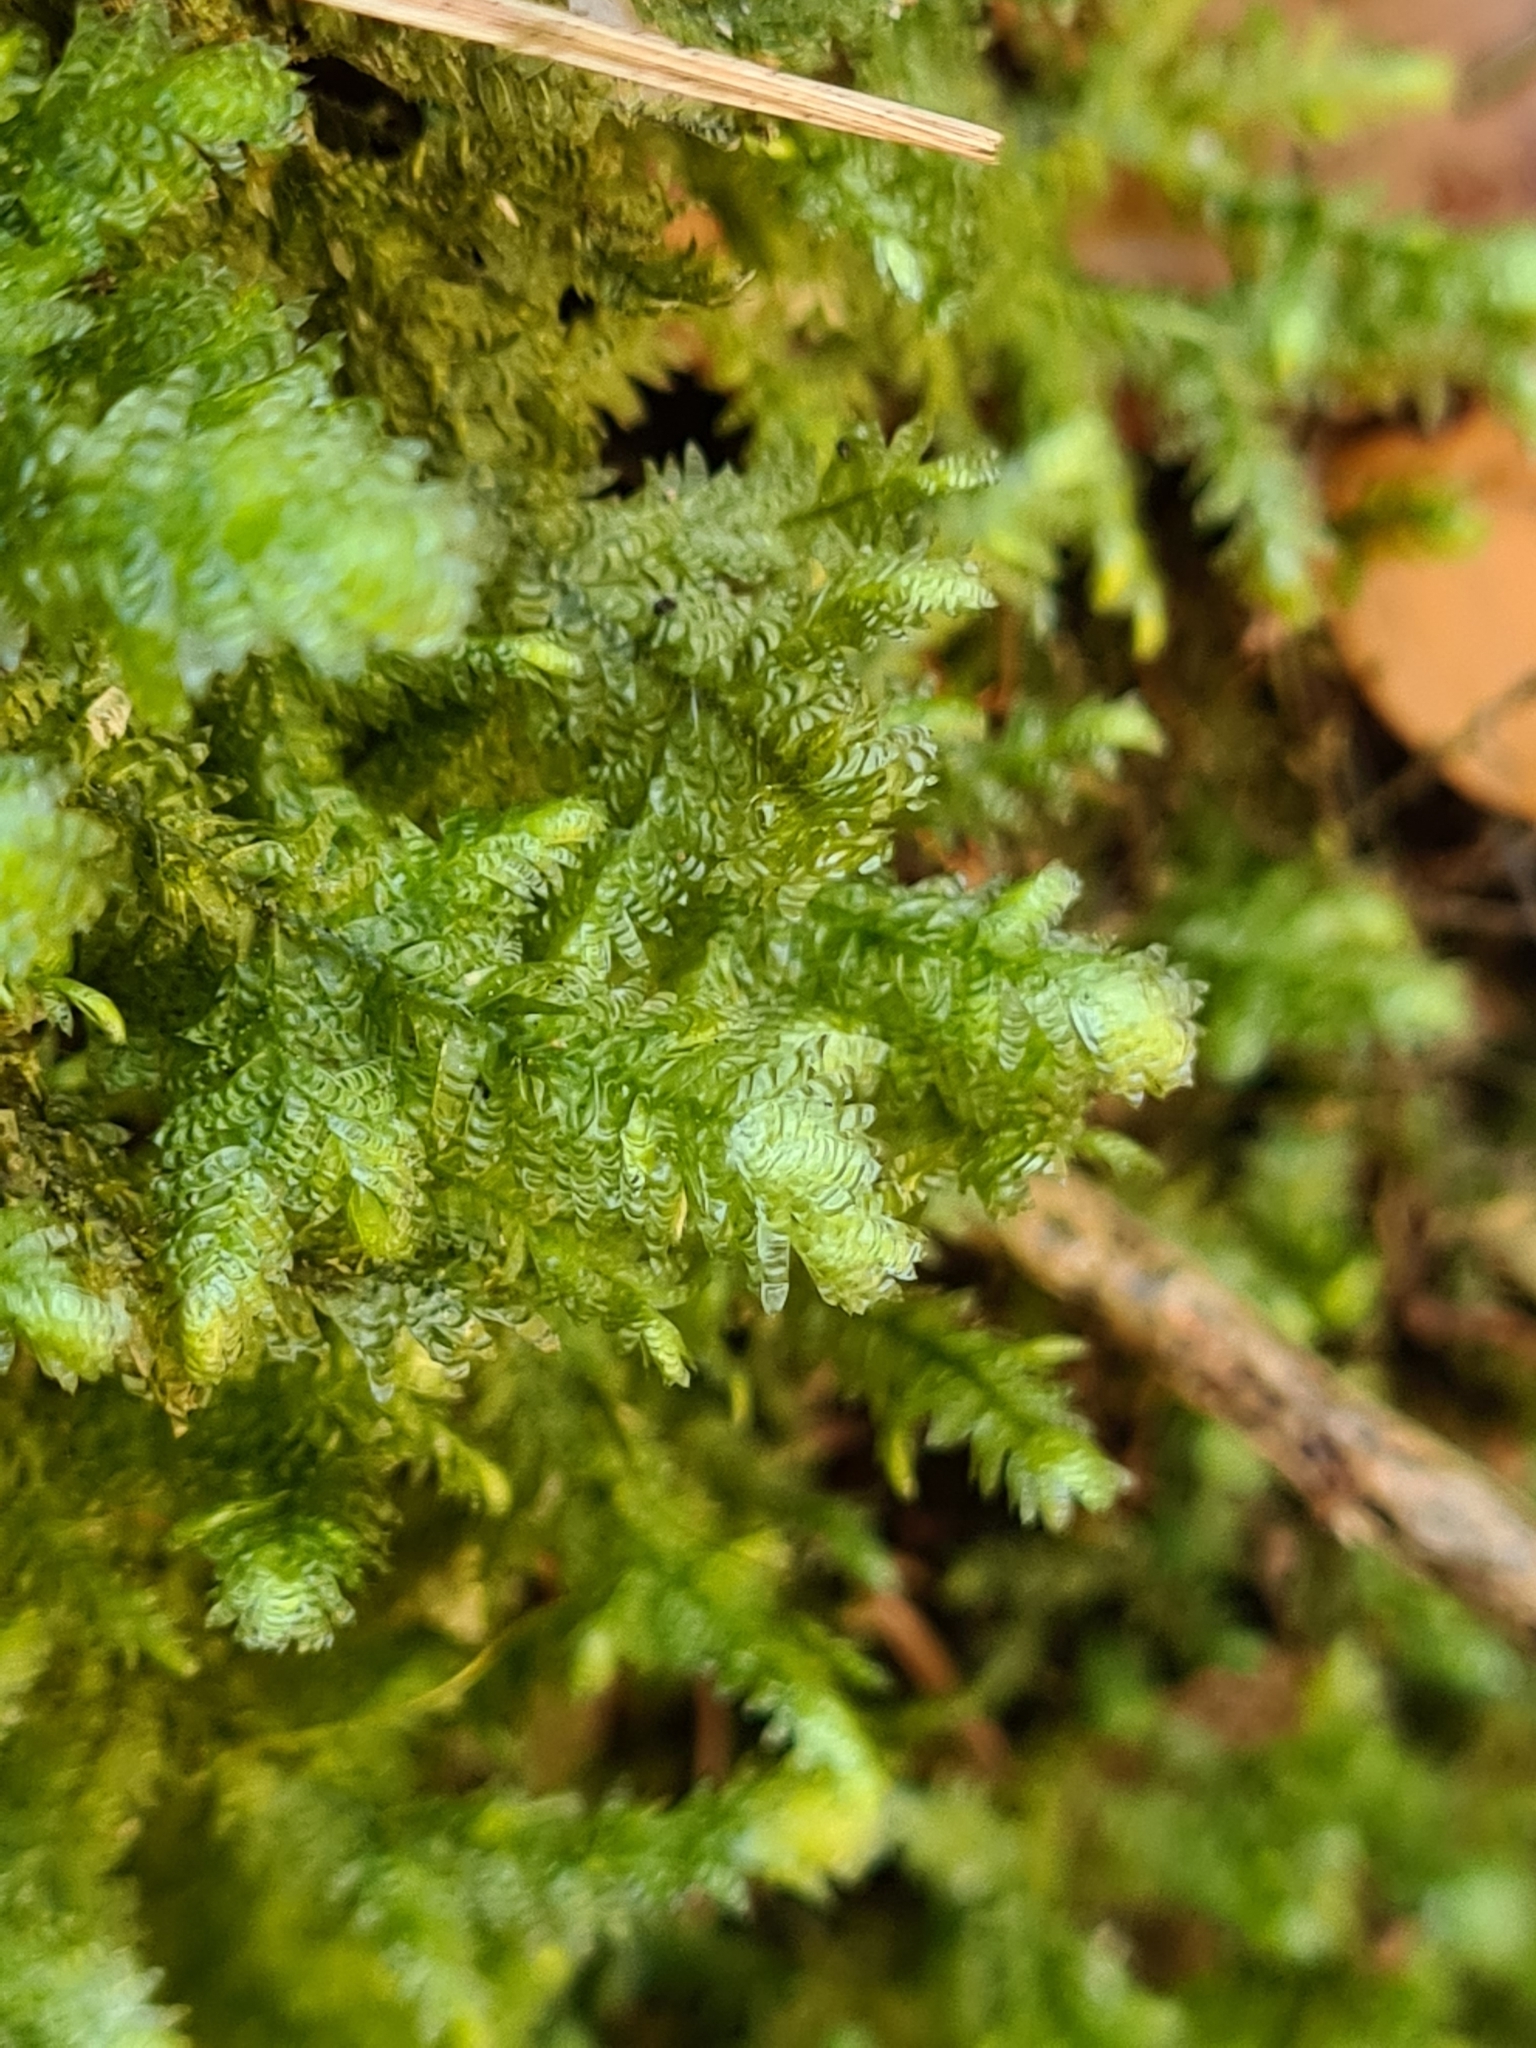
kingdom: Plantae
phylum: Bryophyta
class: Bryopsida
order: Hypnales
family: Neckeraceae
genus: Exsertotheca
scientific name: Exsertotheca crispa
